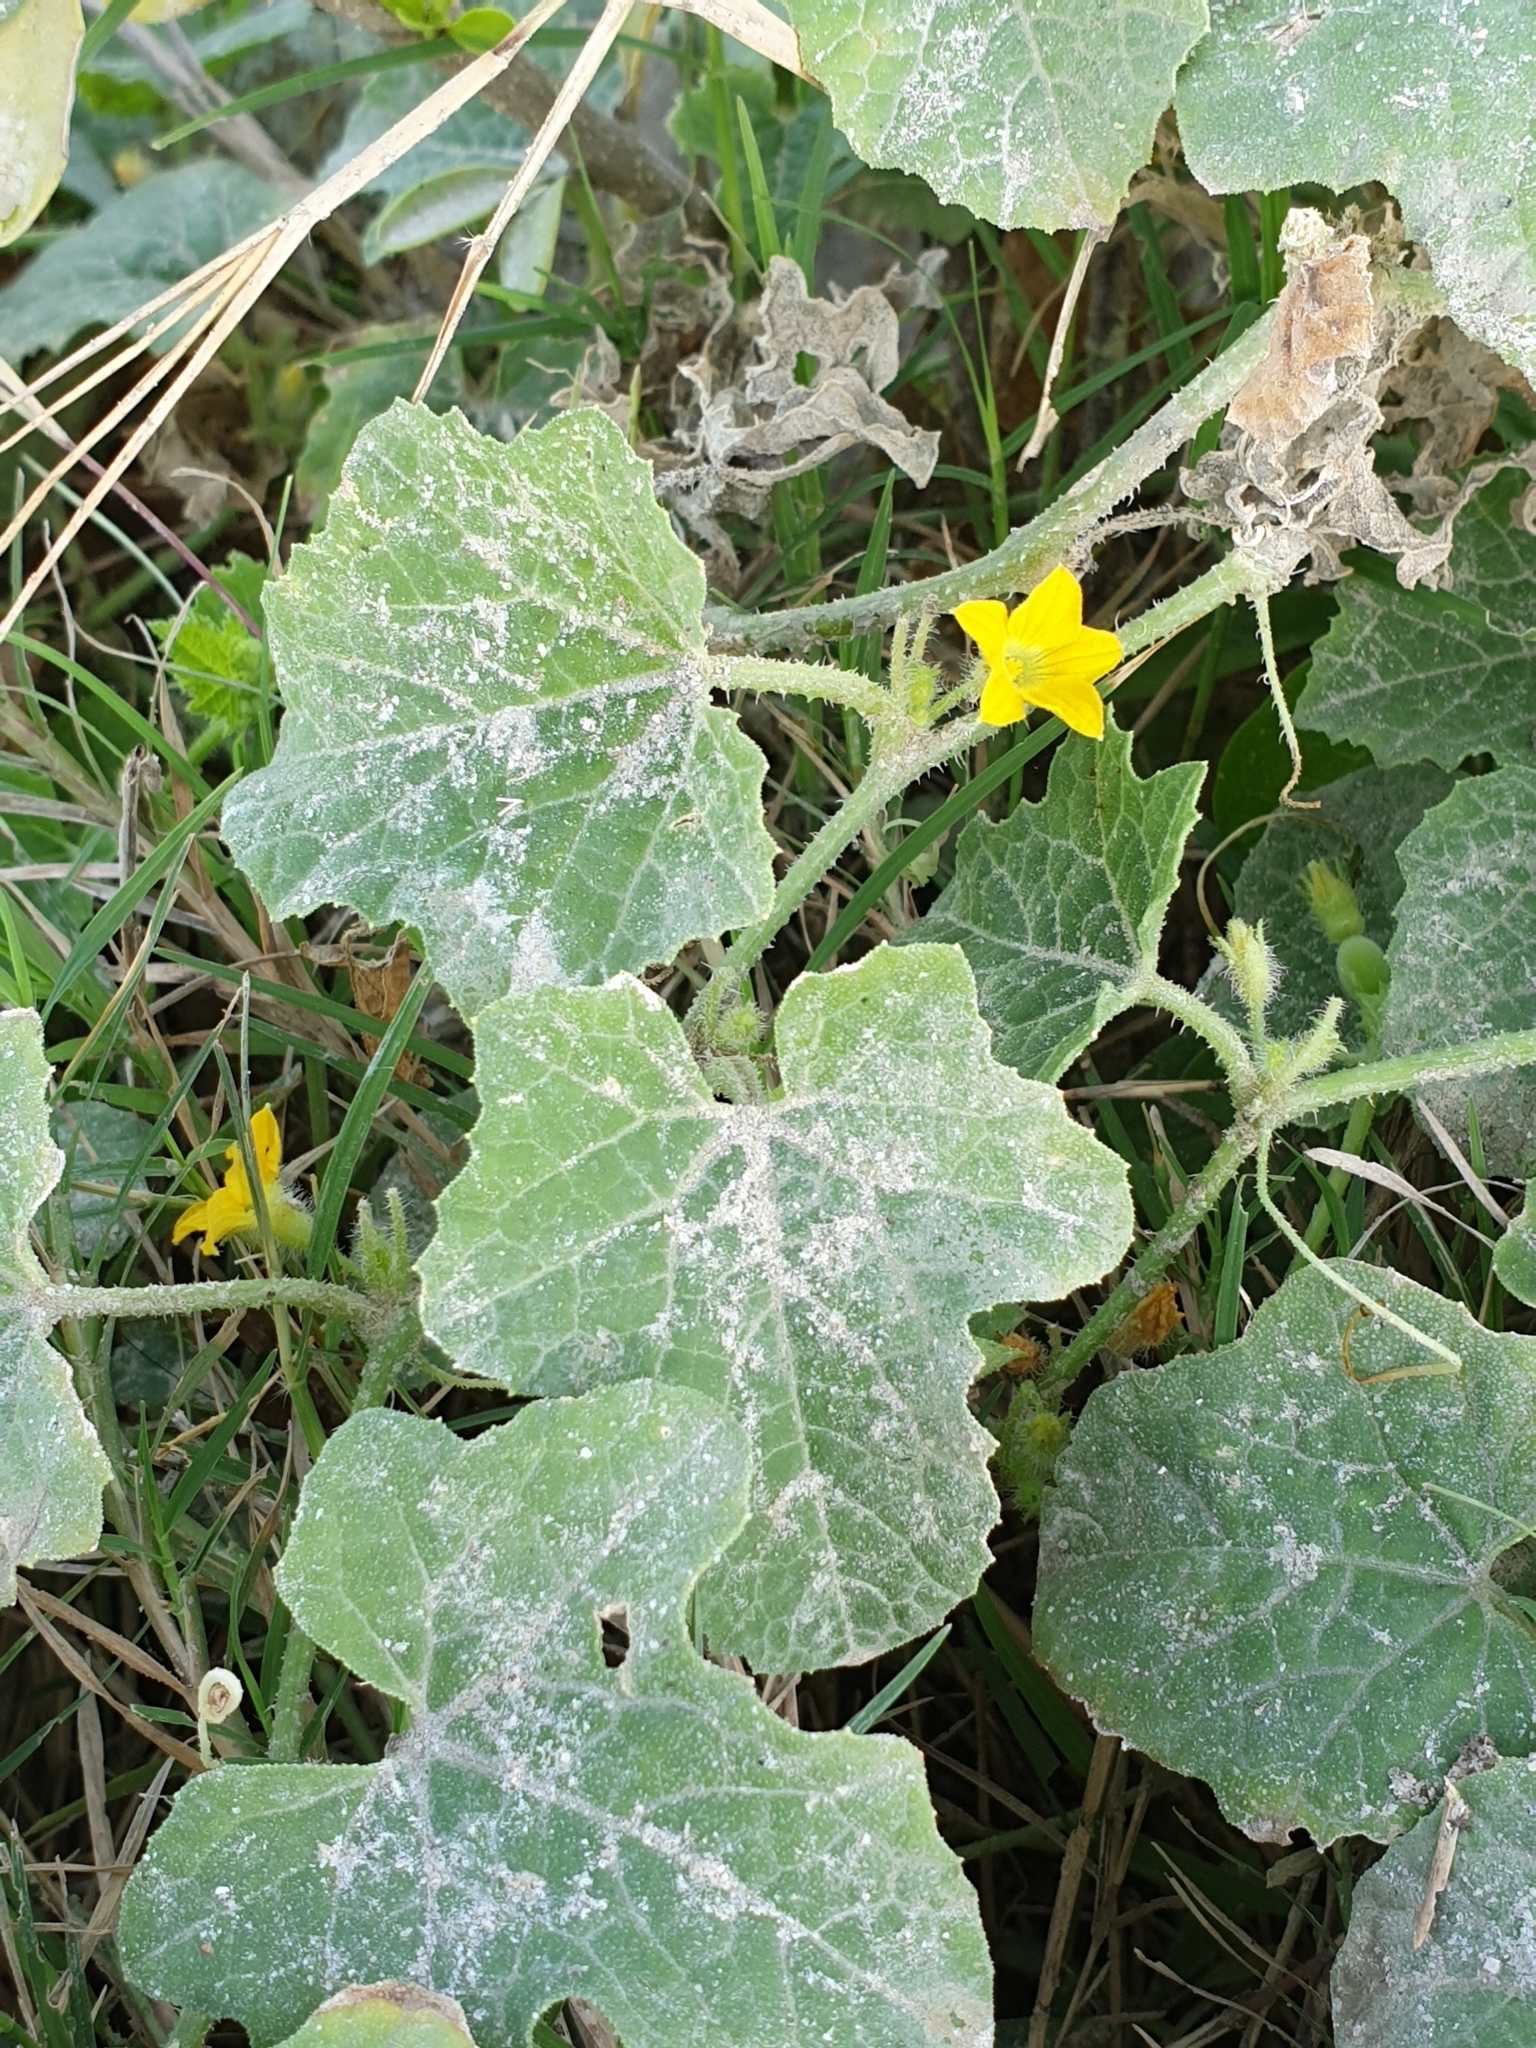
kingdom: Plantae
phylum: Tracheophyta
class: Magnoliopsida
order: Cucurbitales
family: Cucurbitaceae
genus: Cucumis
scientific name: Cucumis melo
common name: Melon
